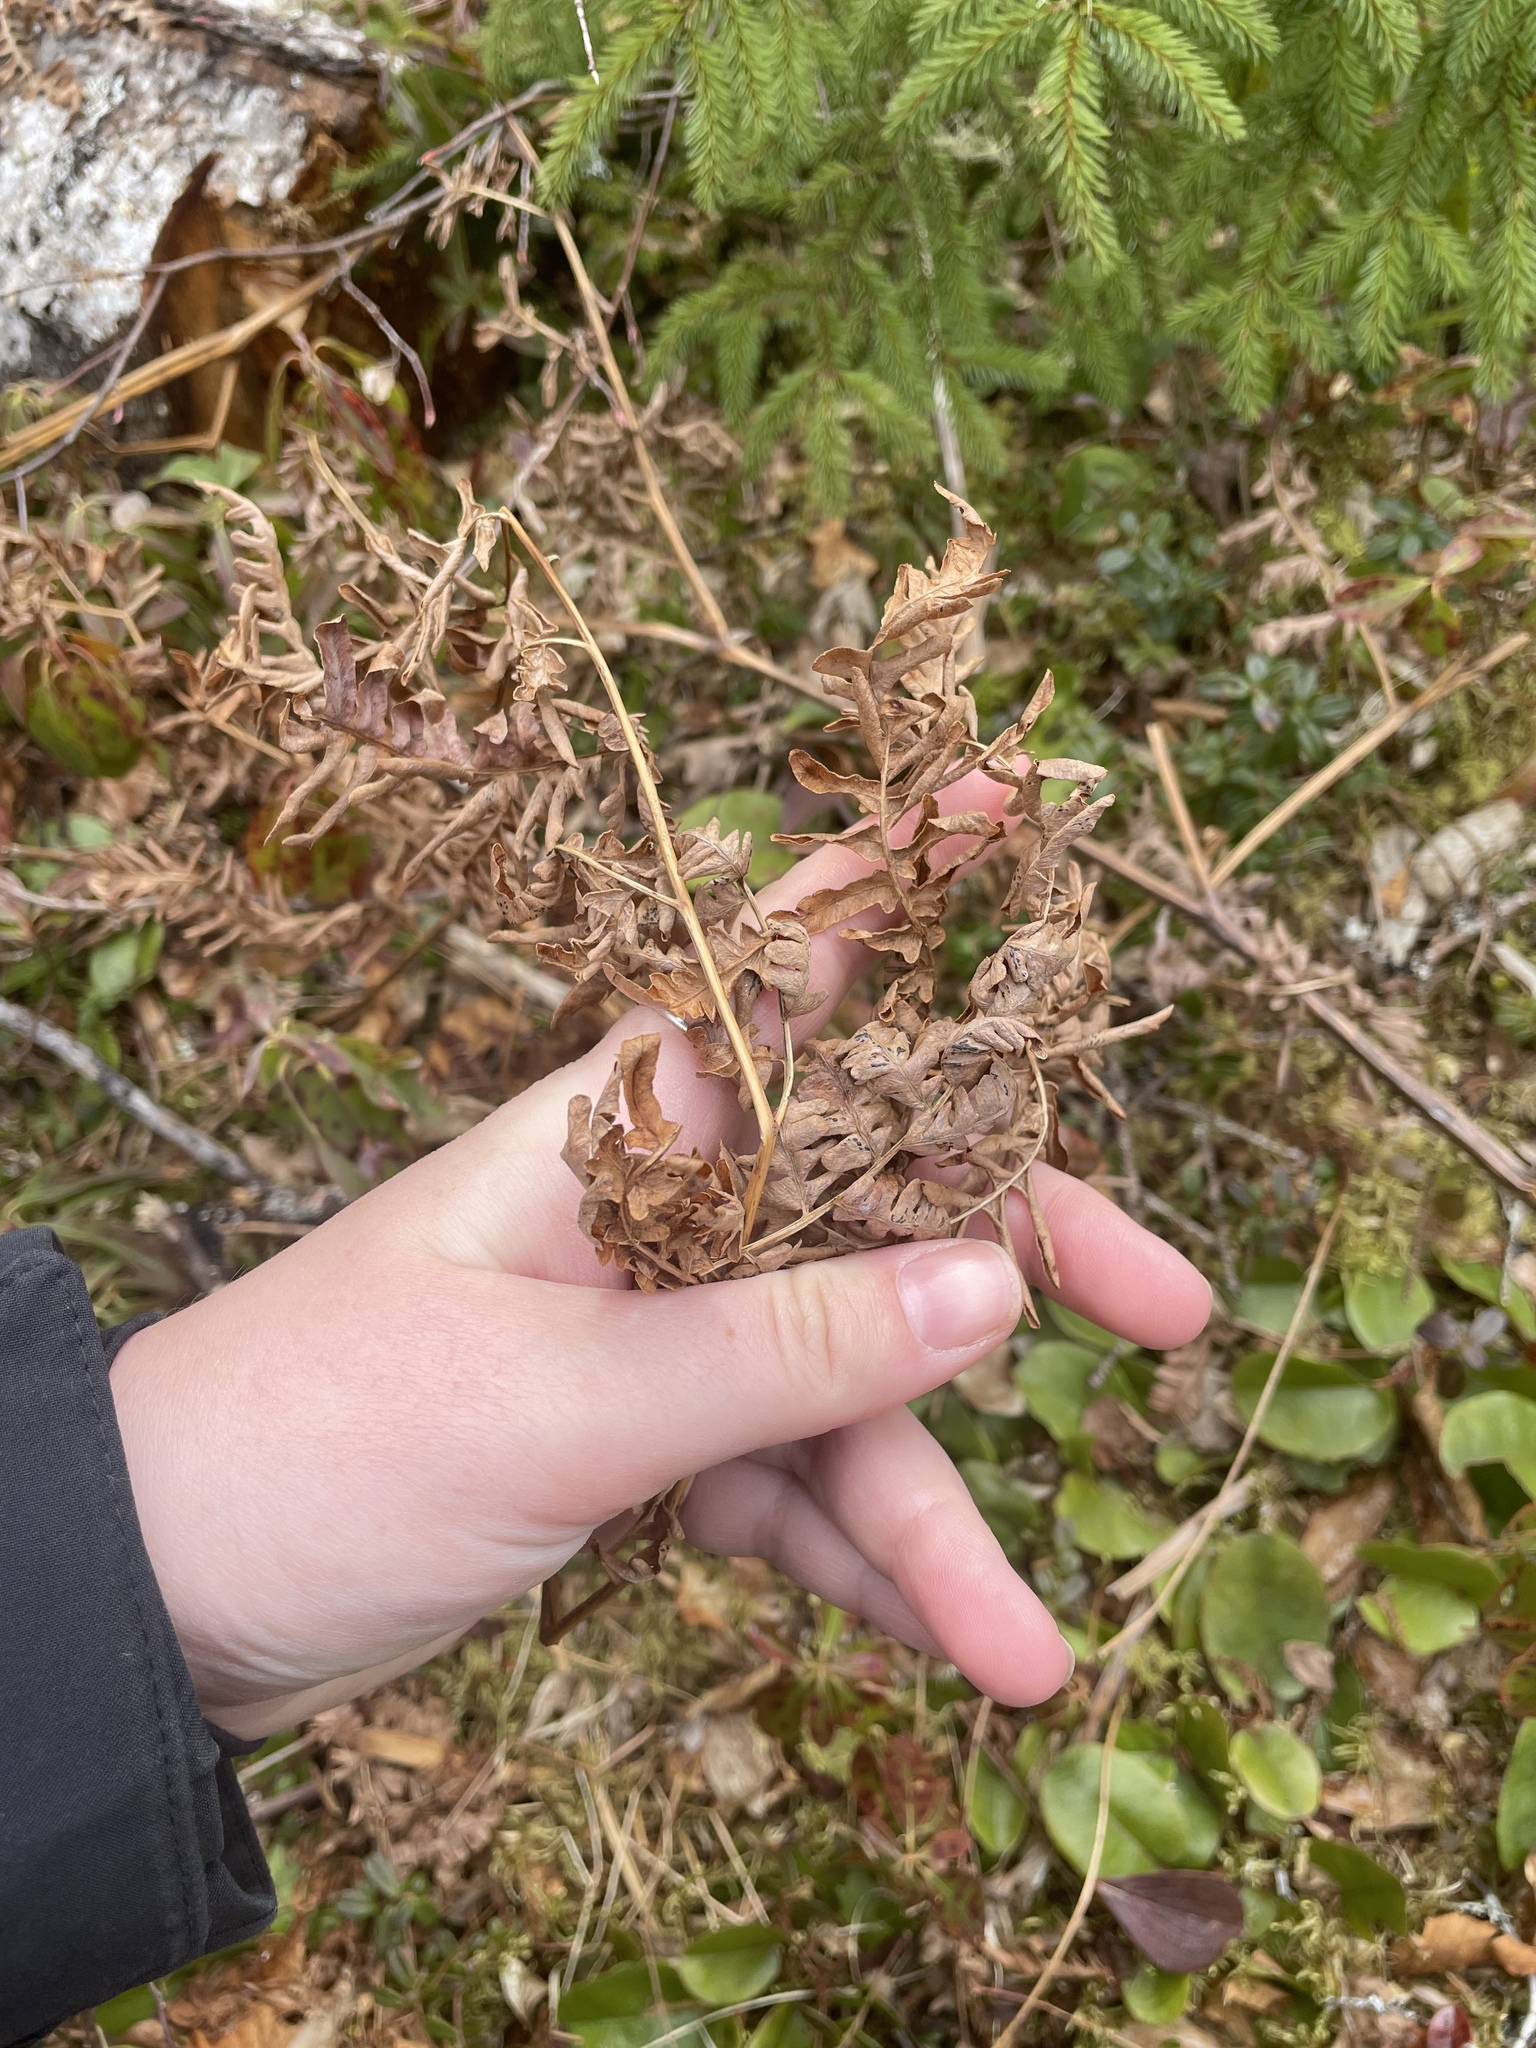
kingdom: Plantae
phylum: Tracheophyta
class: Polypodiopsida
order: Polypodiales
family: Dennstaedtiaceae
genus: Pteridium
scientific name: Pteridium aquilinum
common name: Bracken
